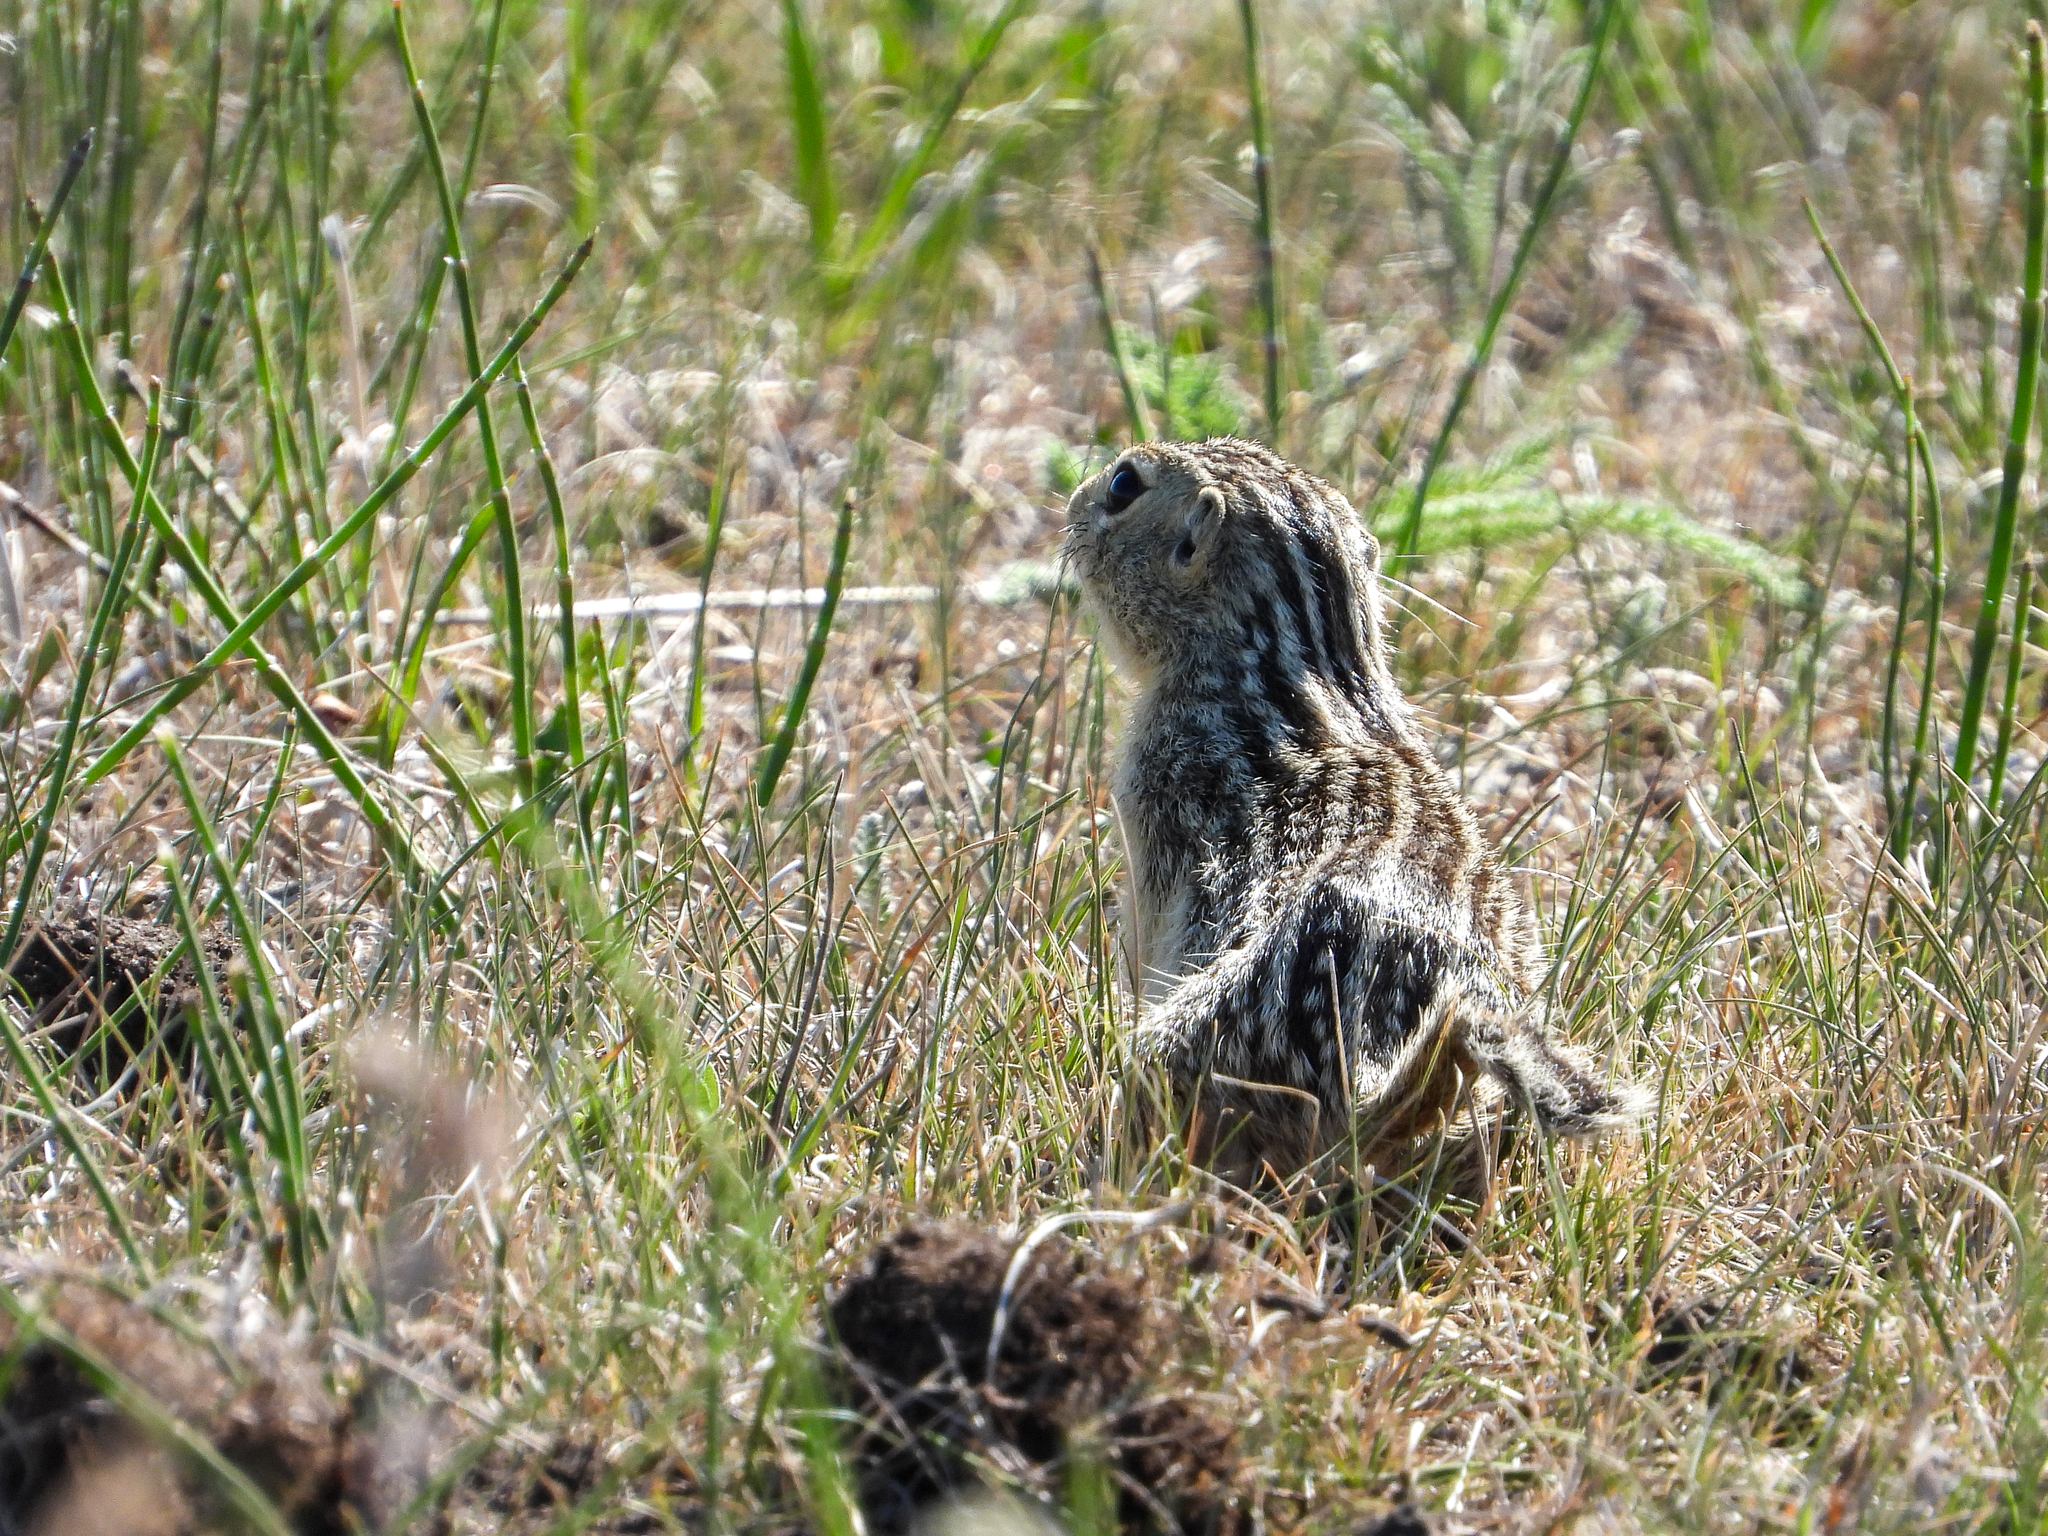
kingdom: Animalia
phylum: Chordata
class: Mammalia
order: Rodentia
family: Sciuridae
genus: Ictidomys
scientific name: Ictidomys tridecemlineatus
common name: Thirteen-lined ground squirrel
